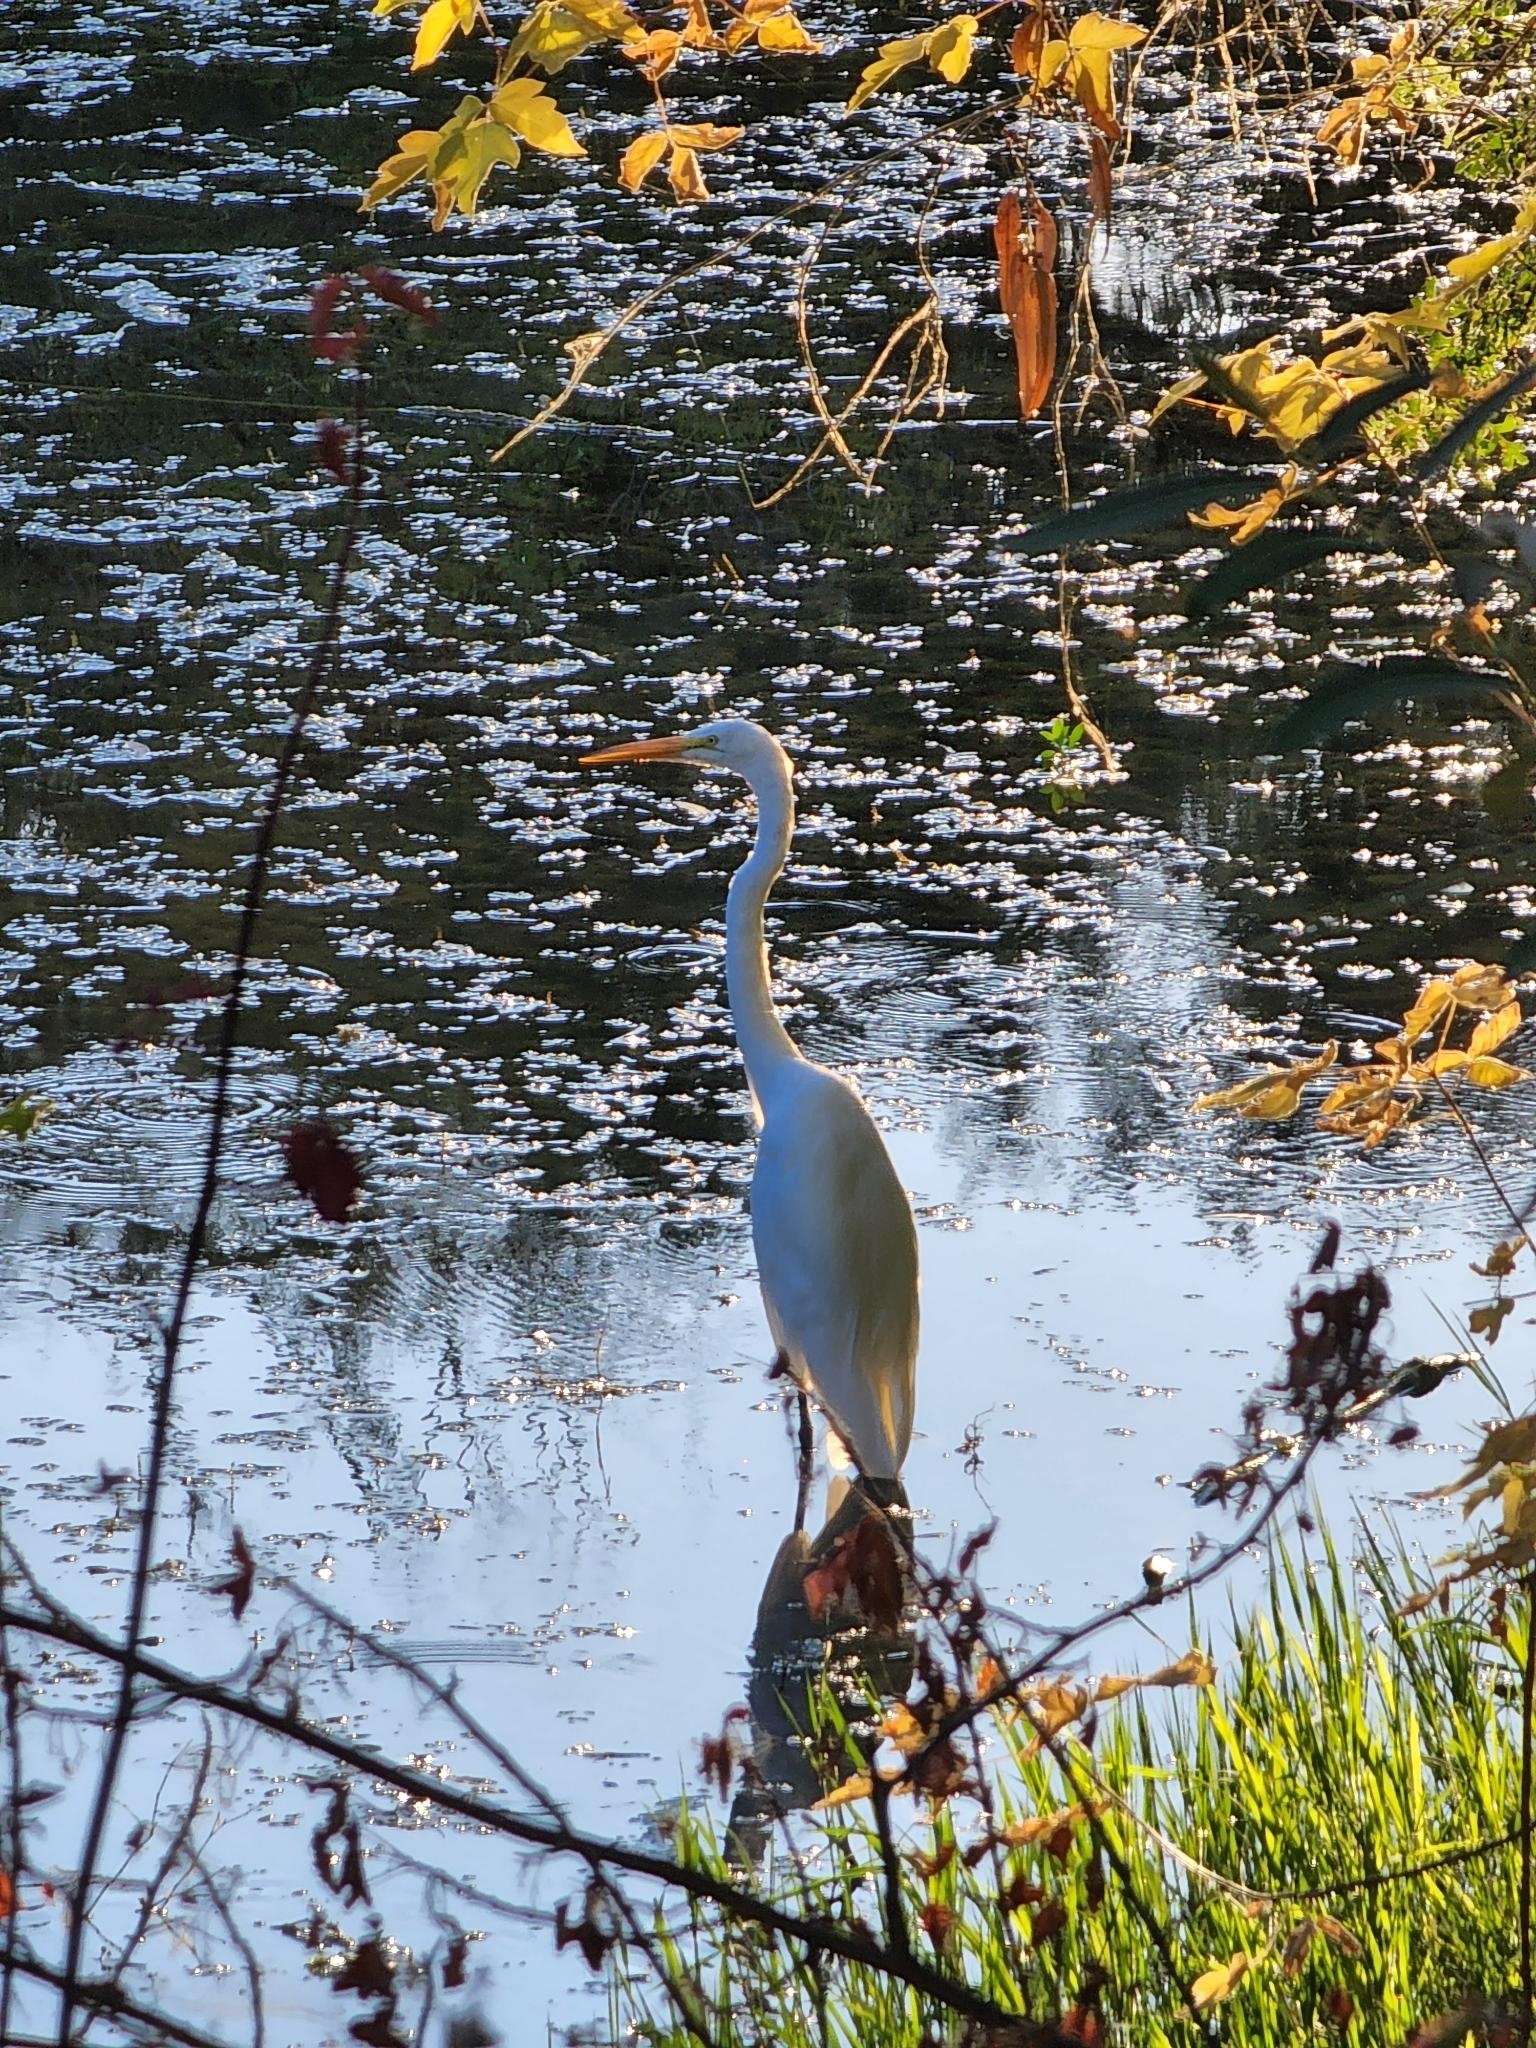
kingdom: Animalia
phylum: Chordata
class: Aves
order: Pelecaniformes
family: Ardeidae
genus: Ardea
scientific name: Ardea alba
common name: Great egret
